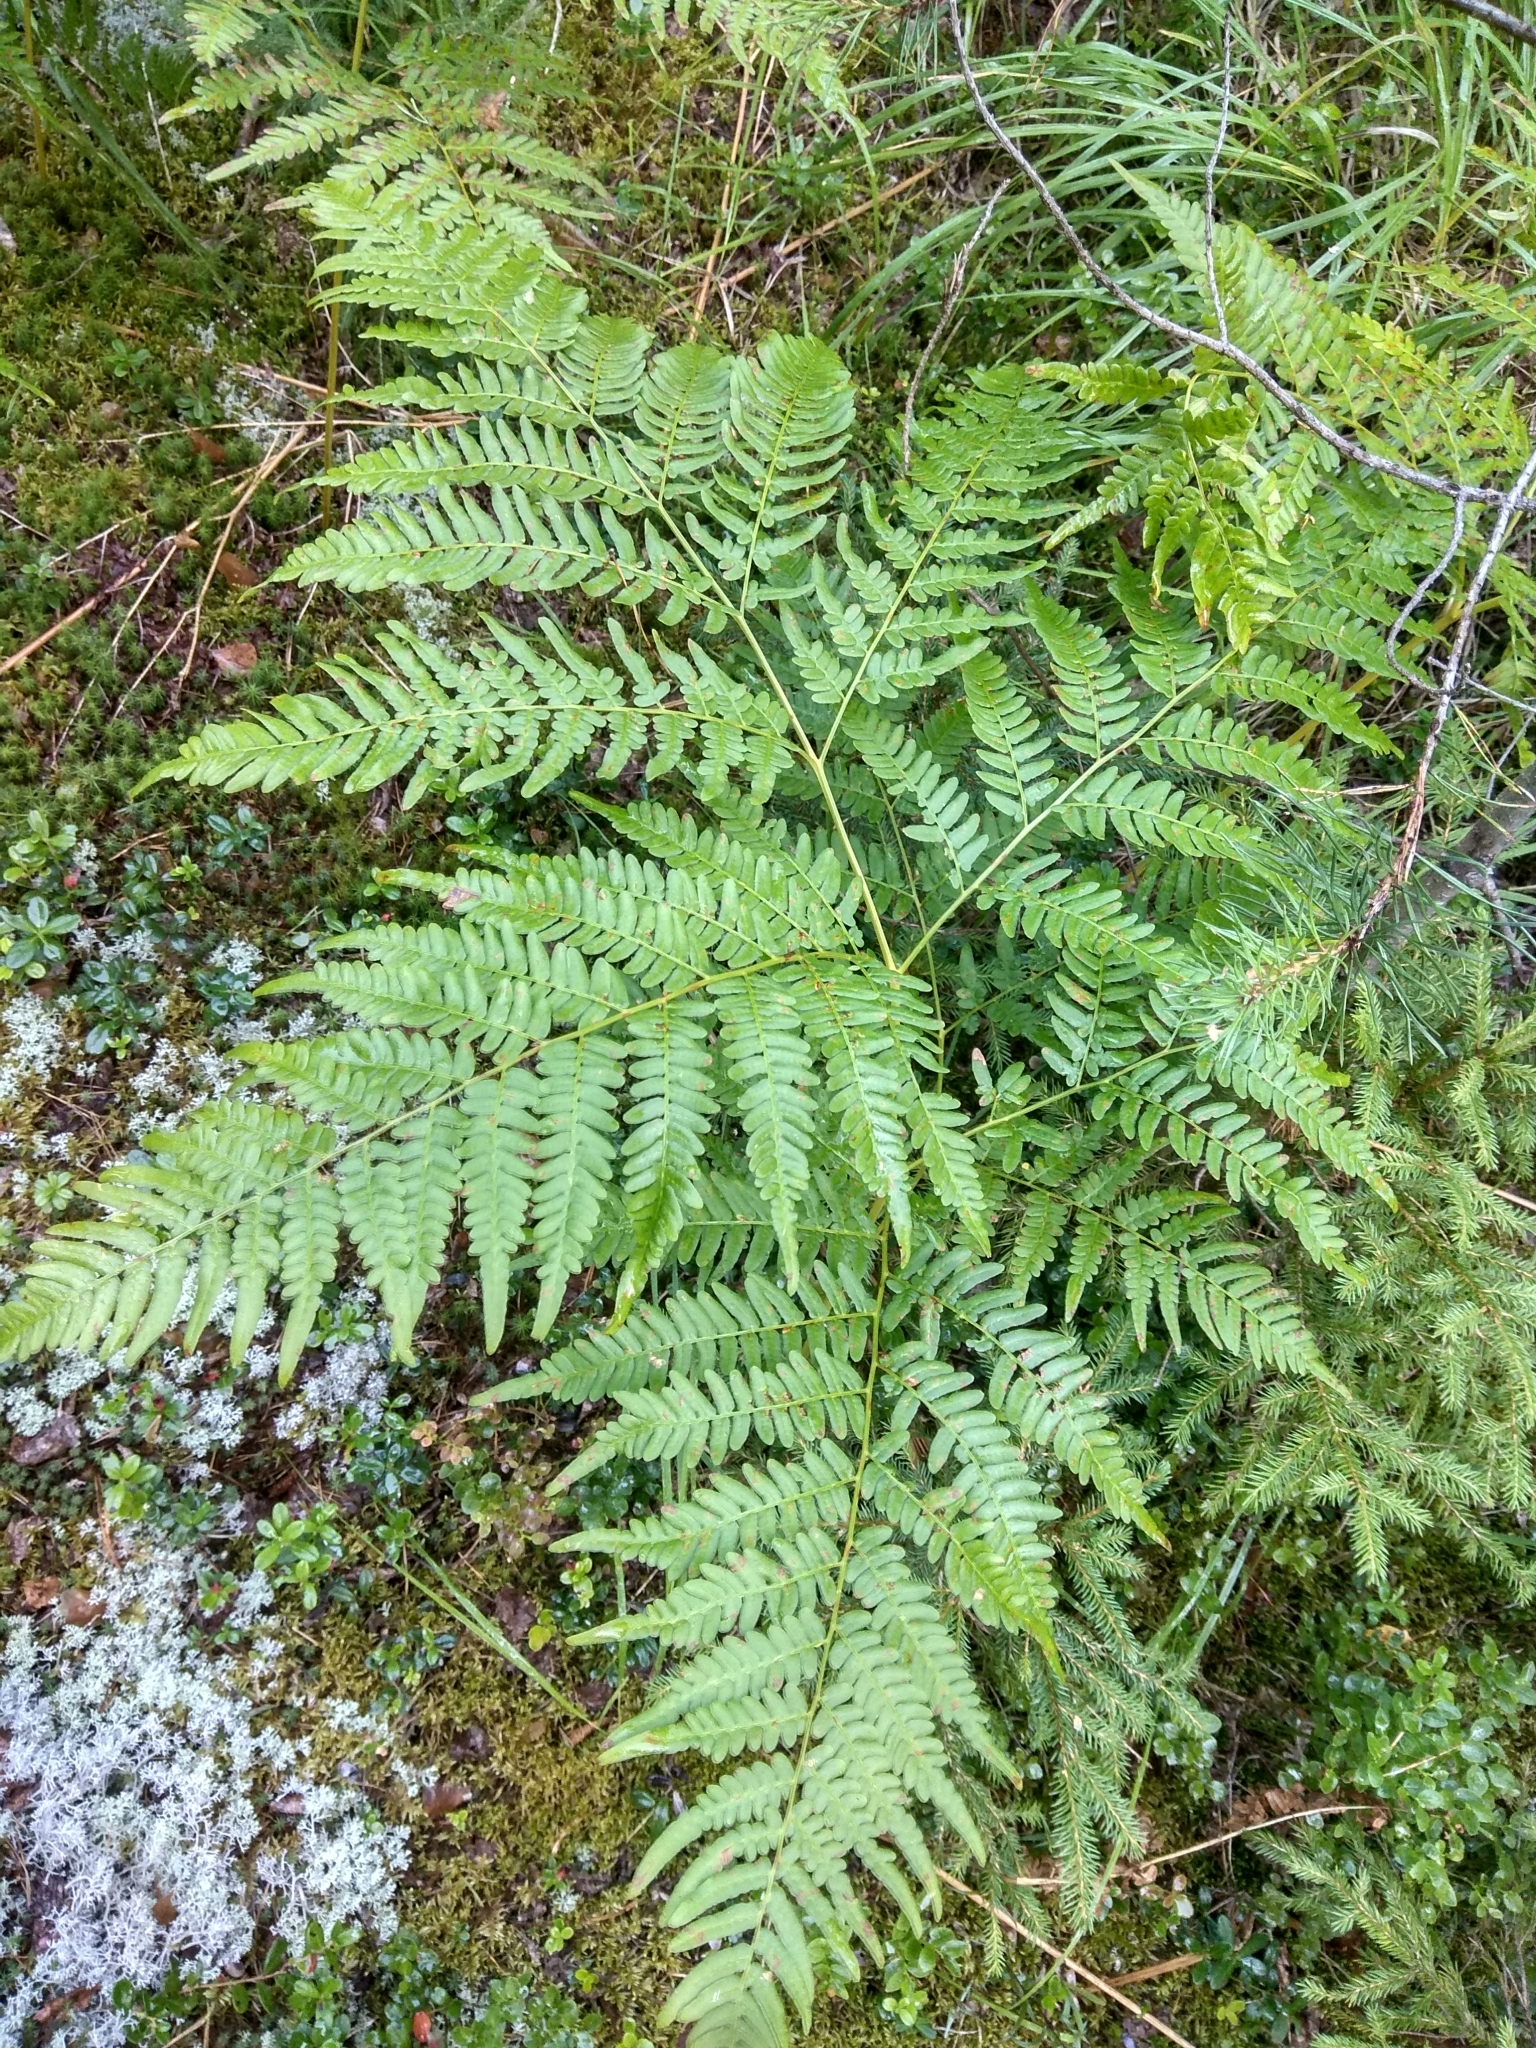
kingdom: Plantae
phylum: Tracheophyta
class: Polypodiopsida
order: Polypodiales
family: Dennstaedtiaceae
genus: Pteridium
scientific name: Pteridium aquilinum
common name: Bracken
